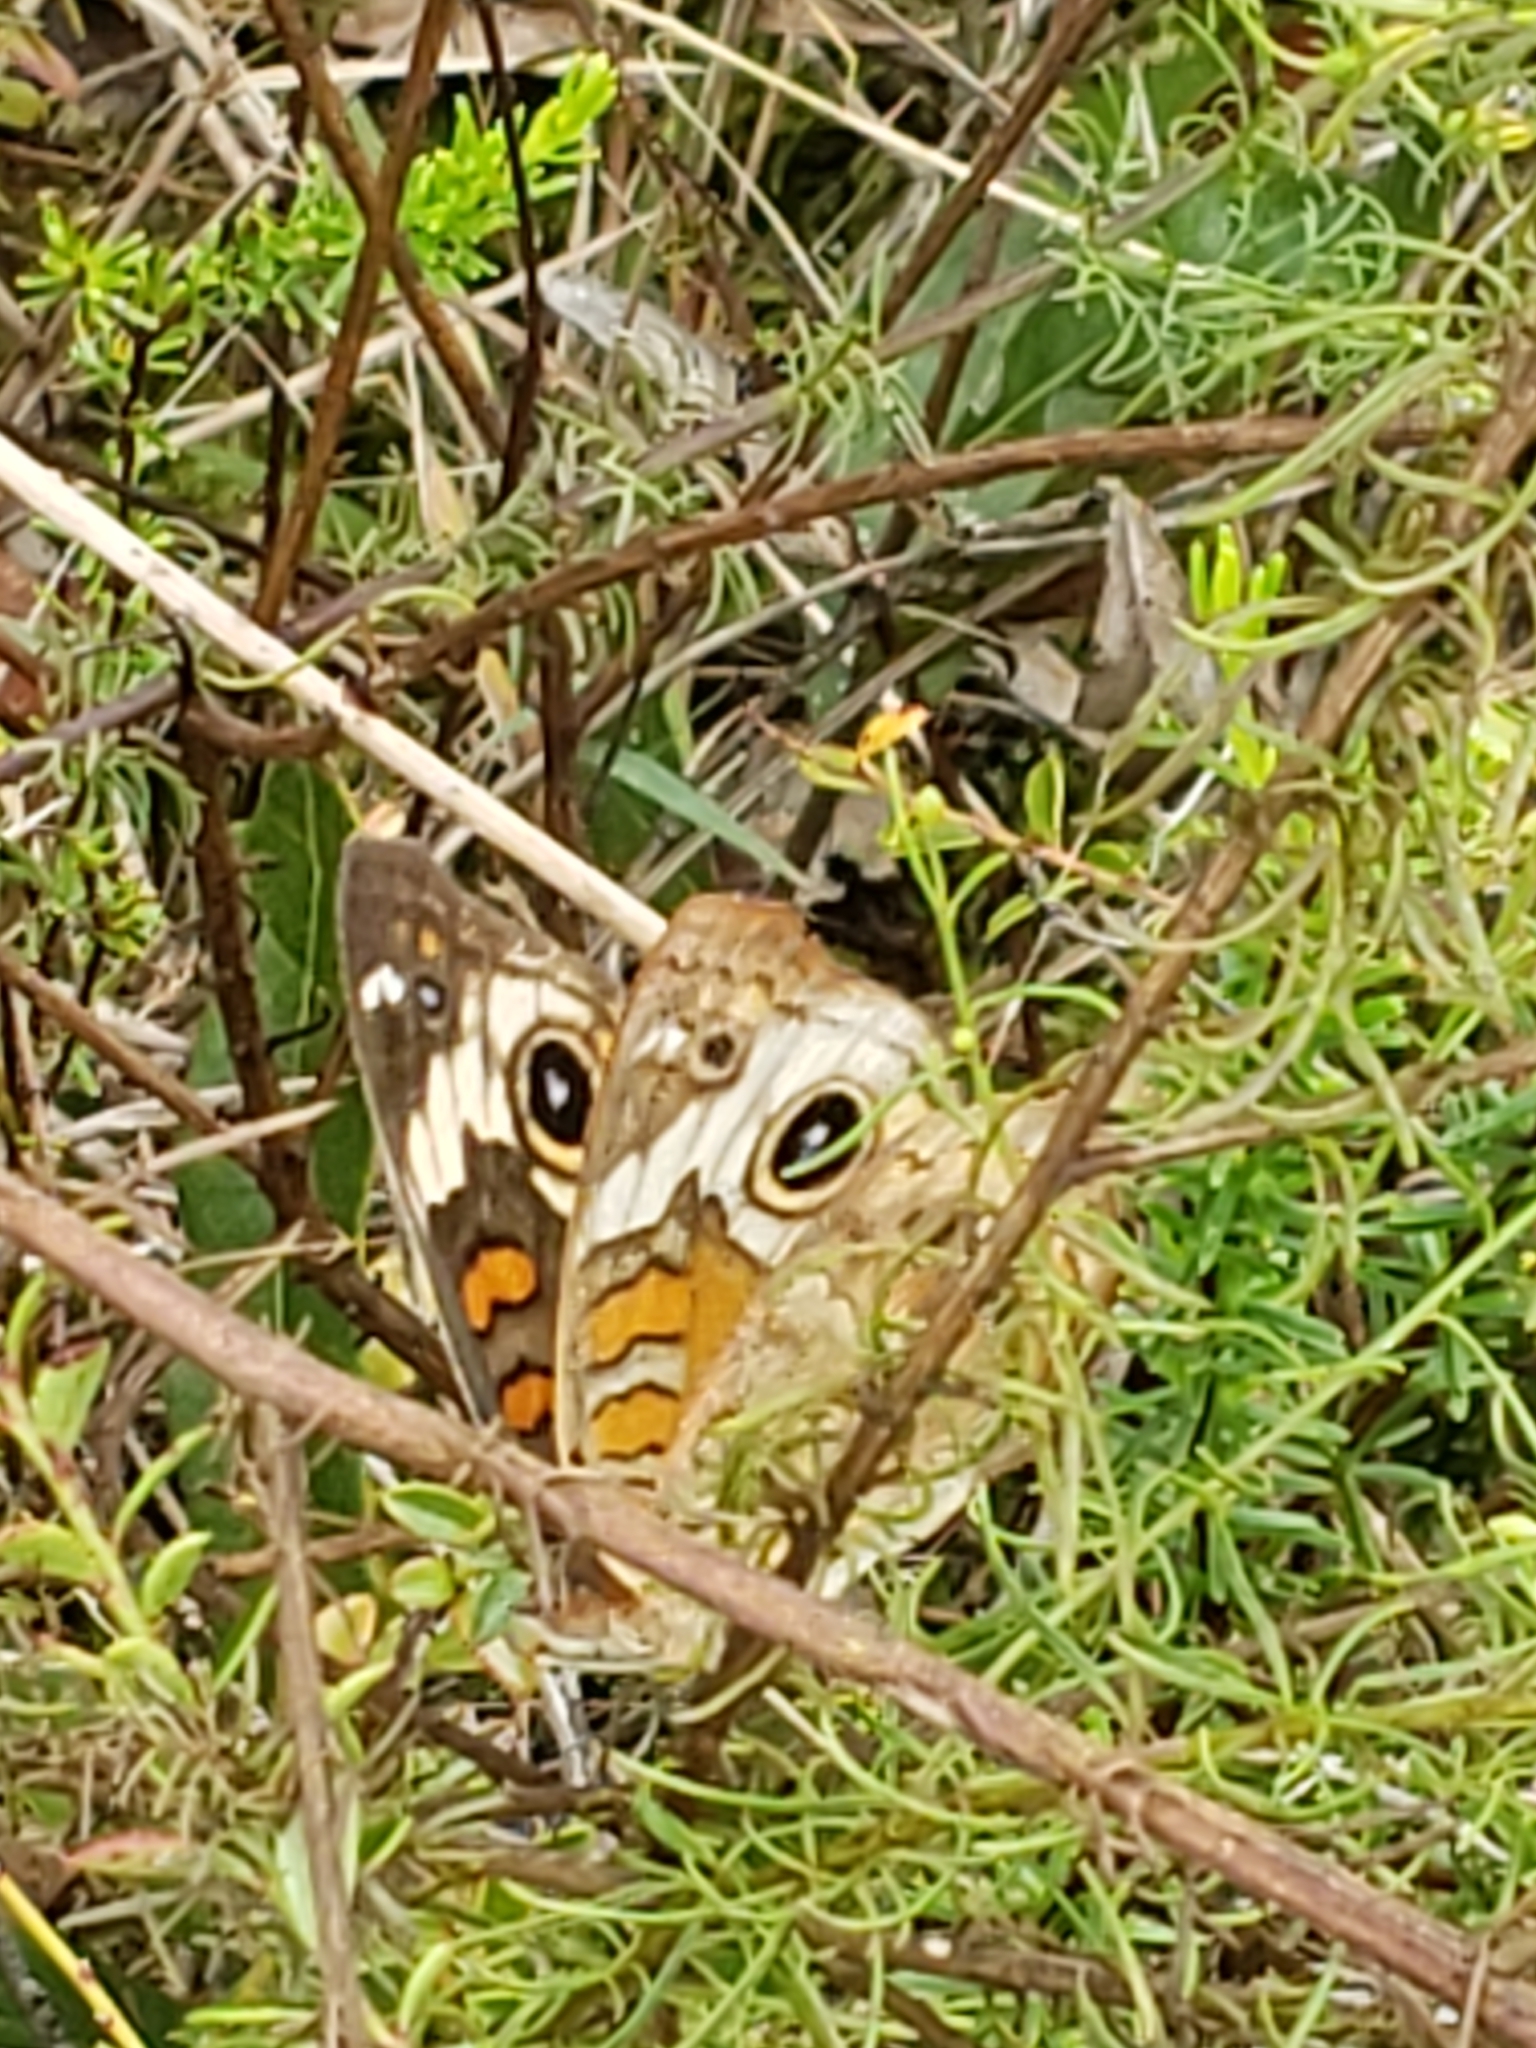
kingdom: Animalia
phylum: Arthropoda
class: Insecta
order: Lepidoptera
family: Nymphalidae
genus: Junonia
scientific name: Junonia coenia
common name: Common buckeye
